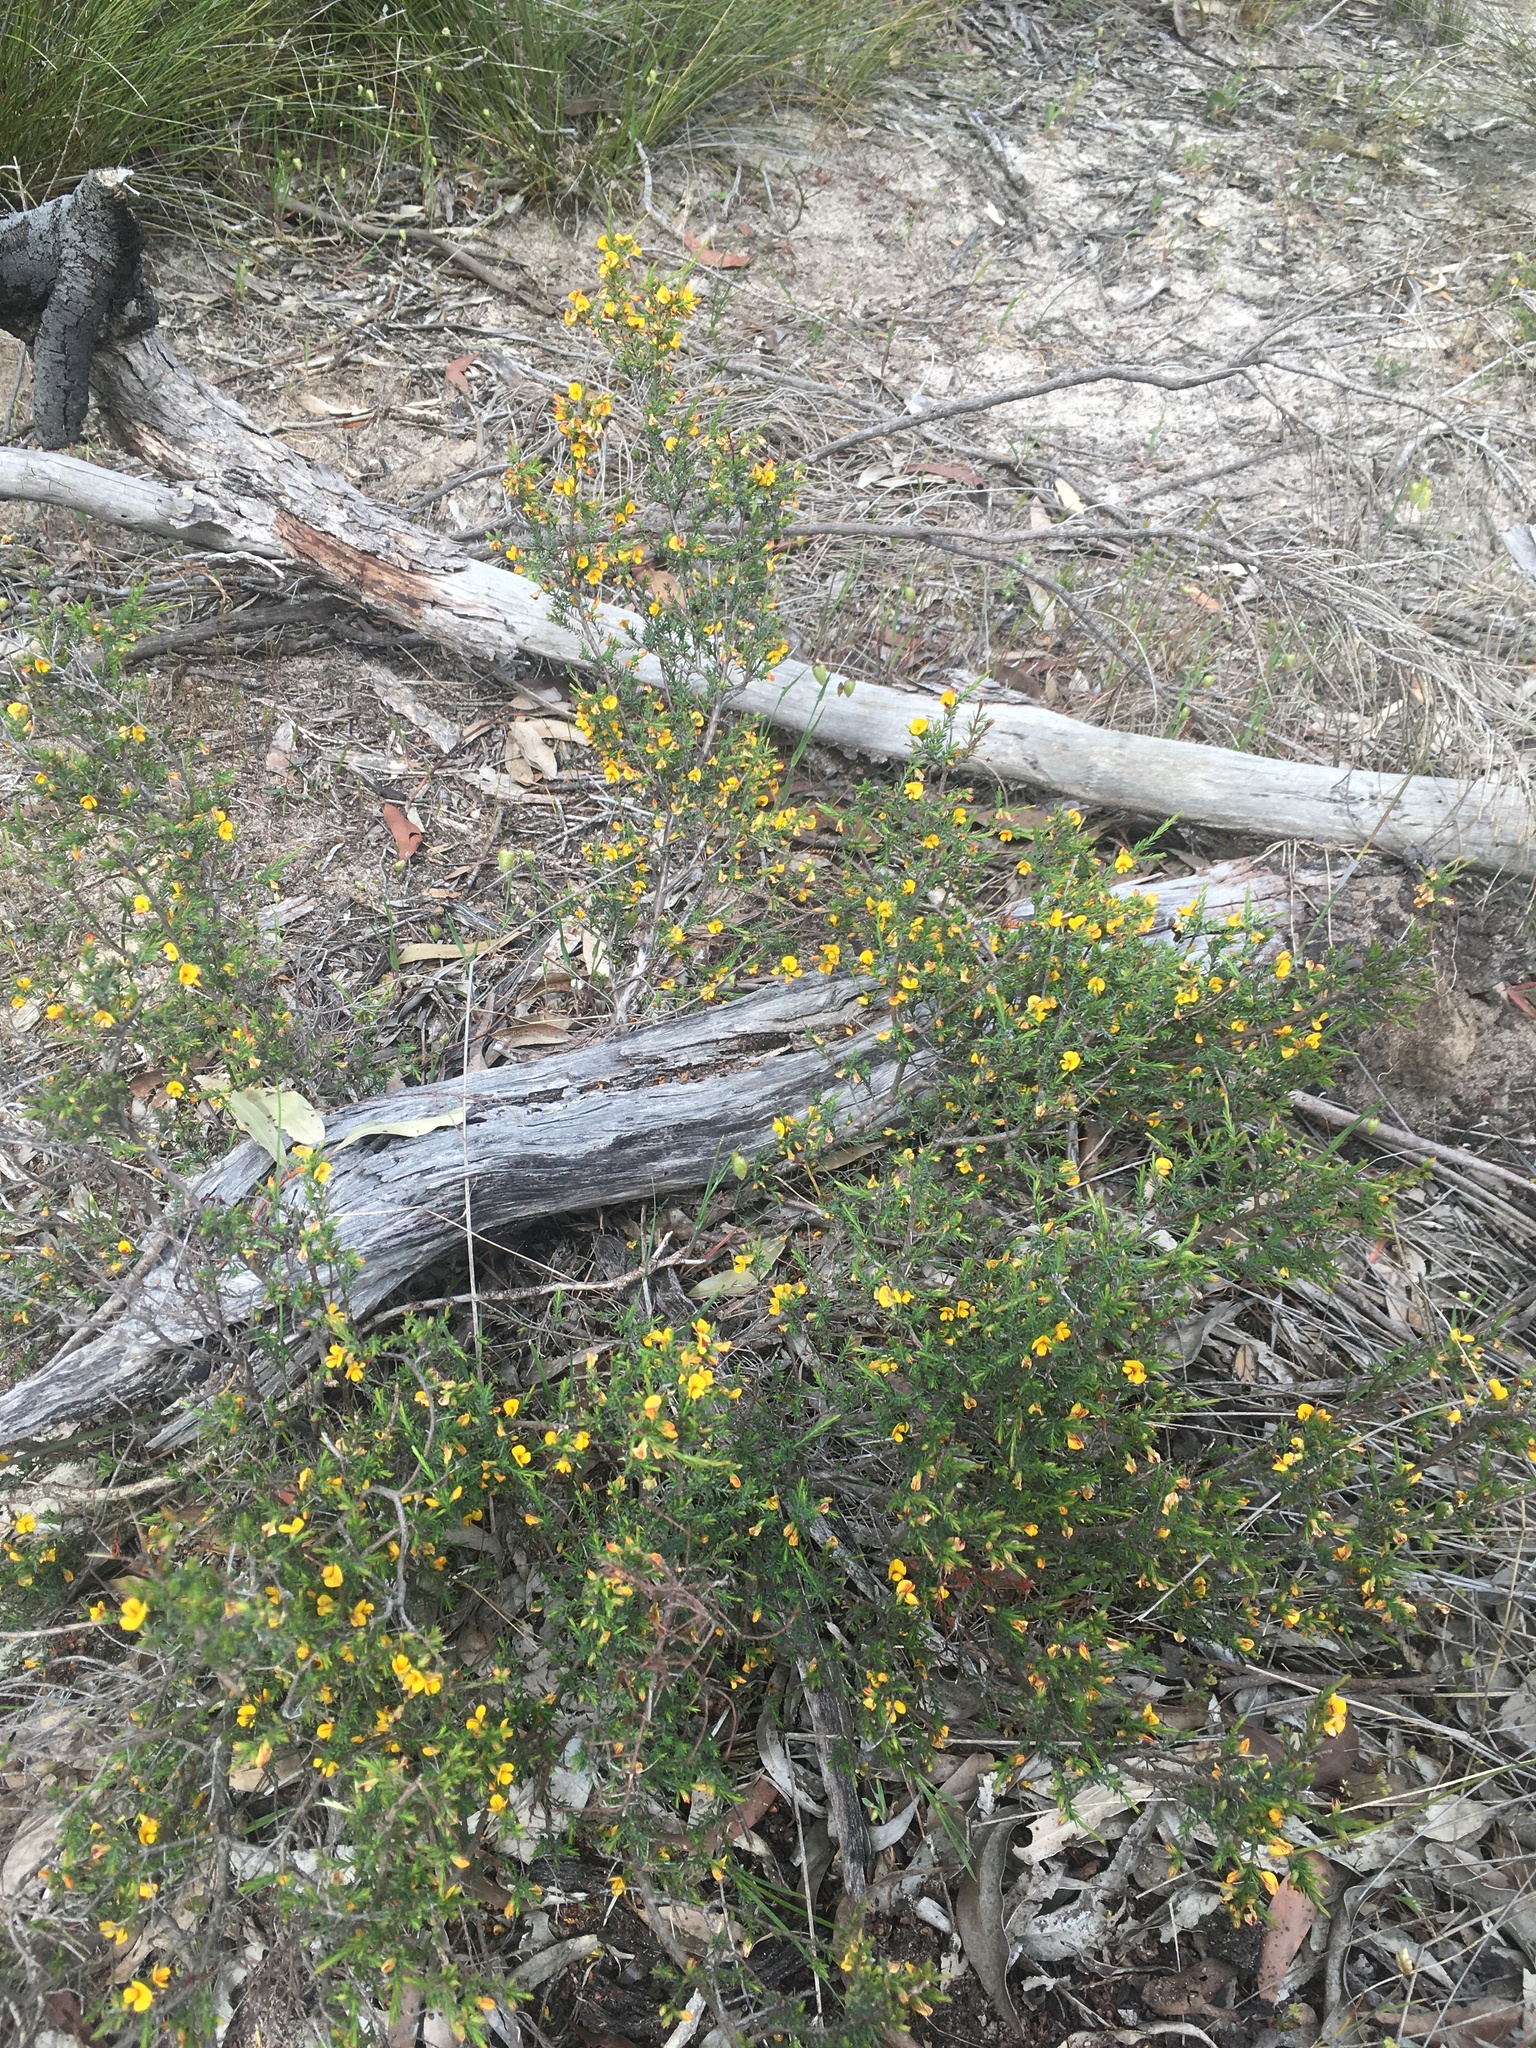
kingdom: Plantae
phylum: Tracheophyta
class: Magnoliopsida
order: Fabales
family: Fabaceae
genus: Eutaxia
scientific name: Eutaxia microphylla
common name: Mallee bush-pea
